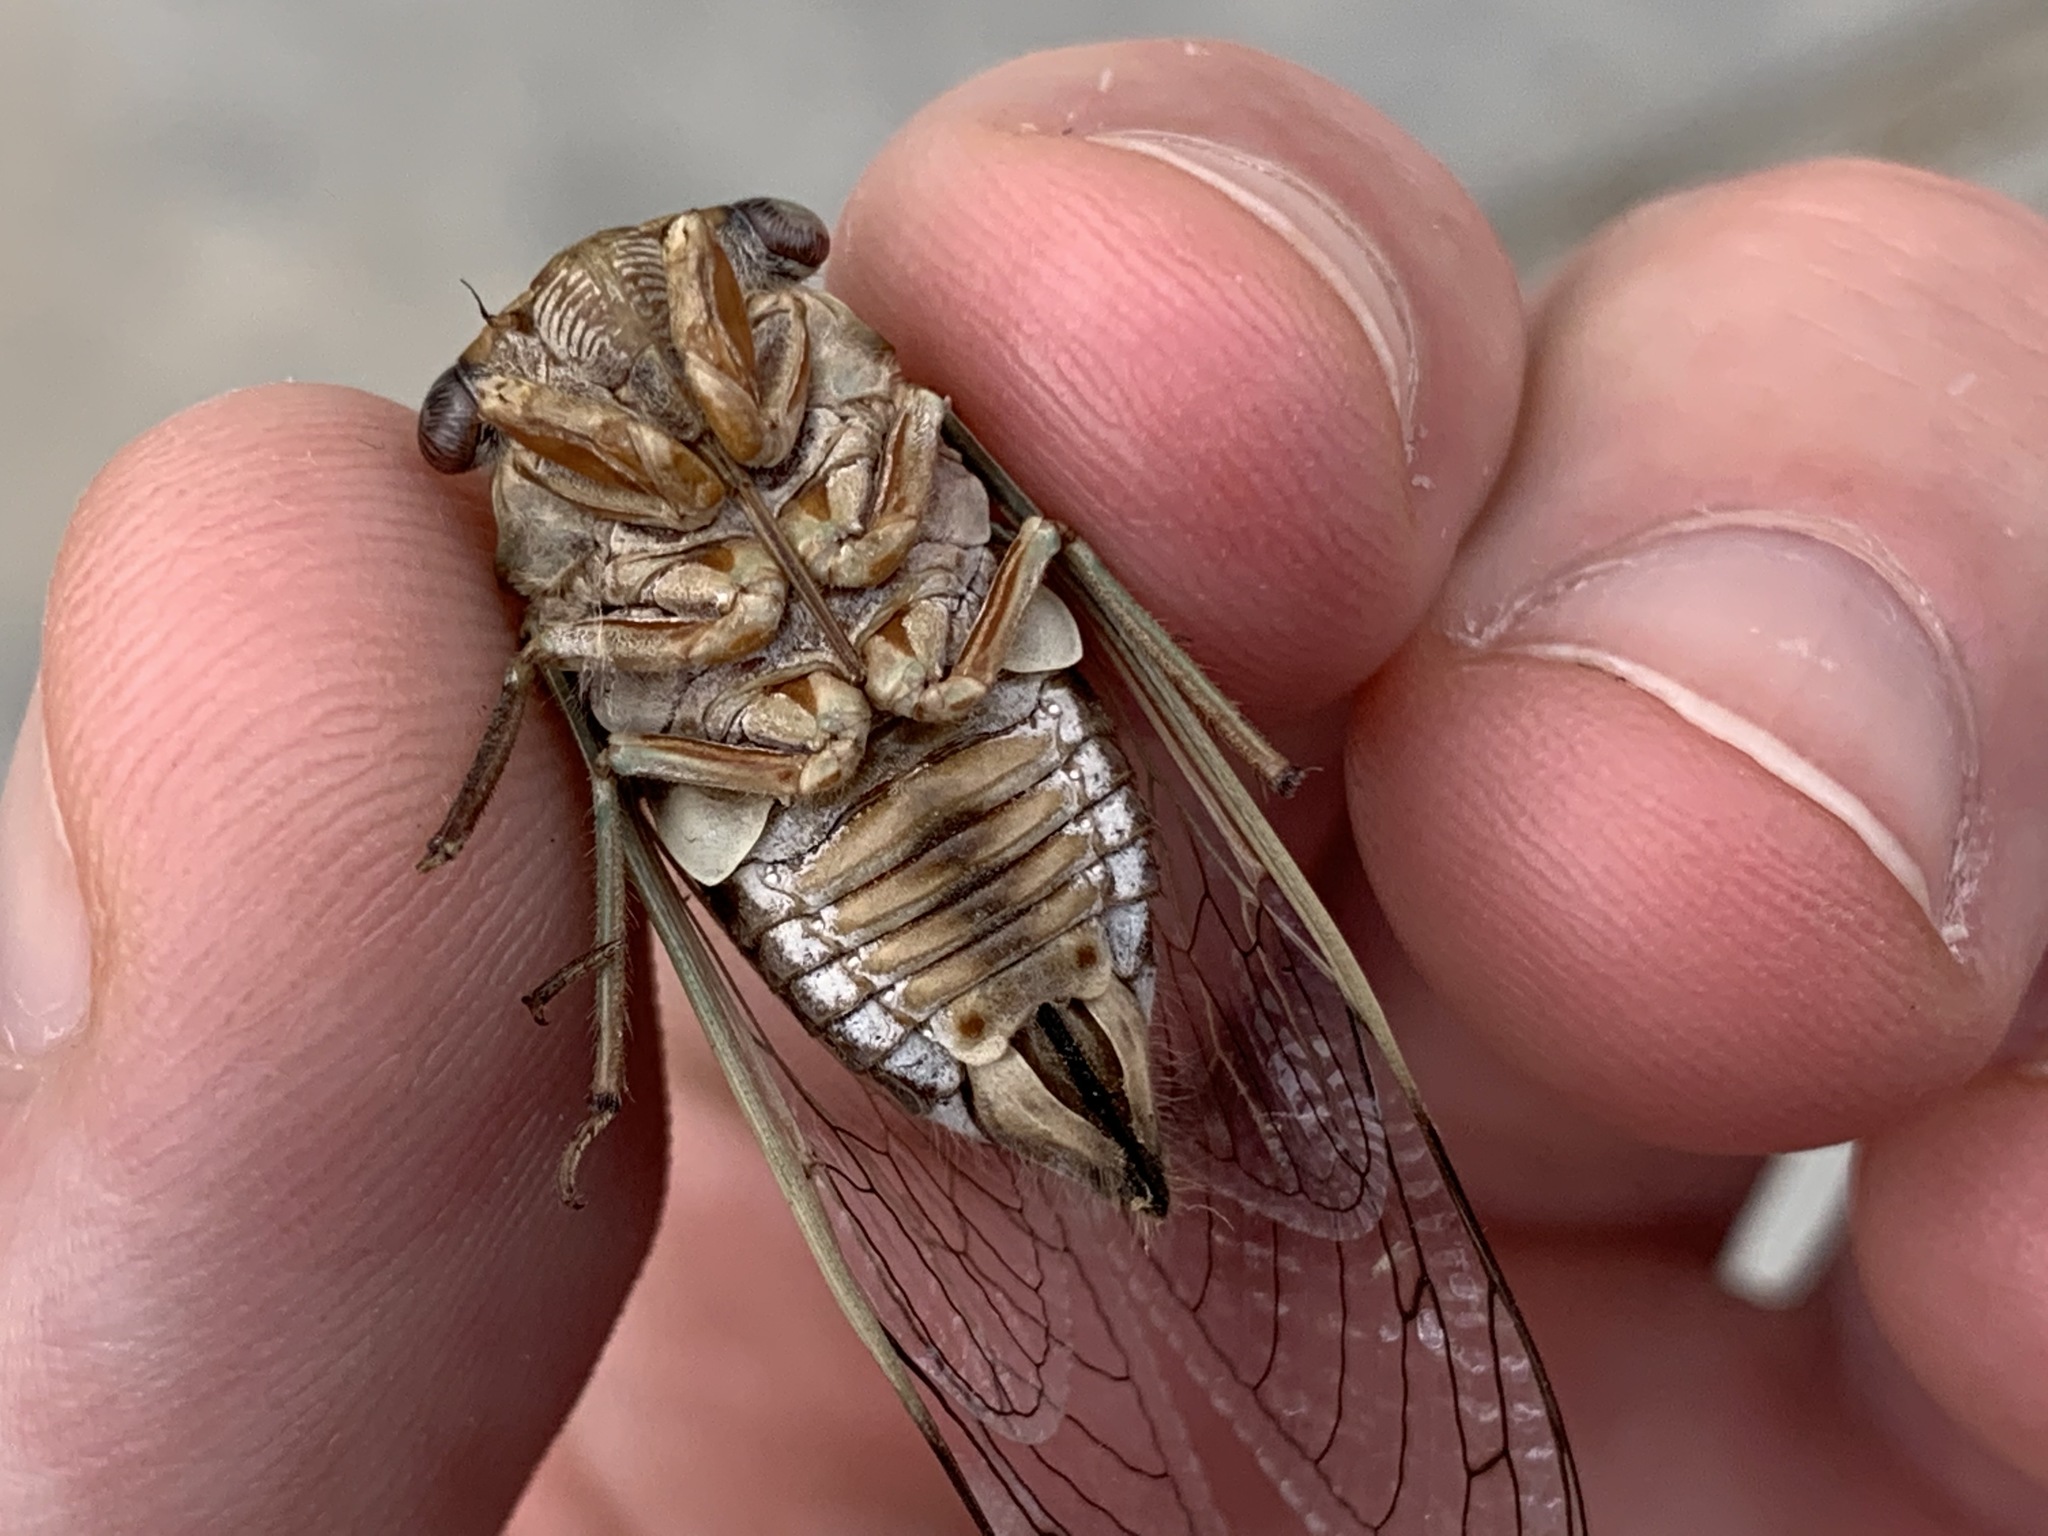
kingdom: Animalia
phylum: Arthropoda
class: Insecta
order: Hemiptera
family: Cicadidae
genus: Diceroprocta
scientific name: Diceroprocta apache
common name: Desert cicada
